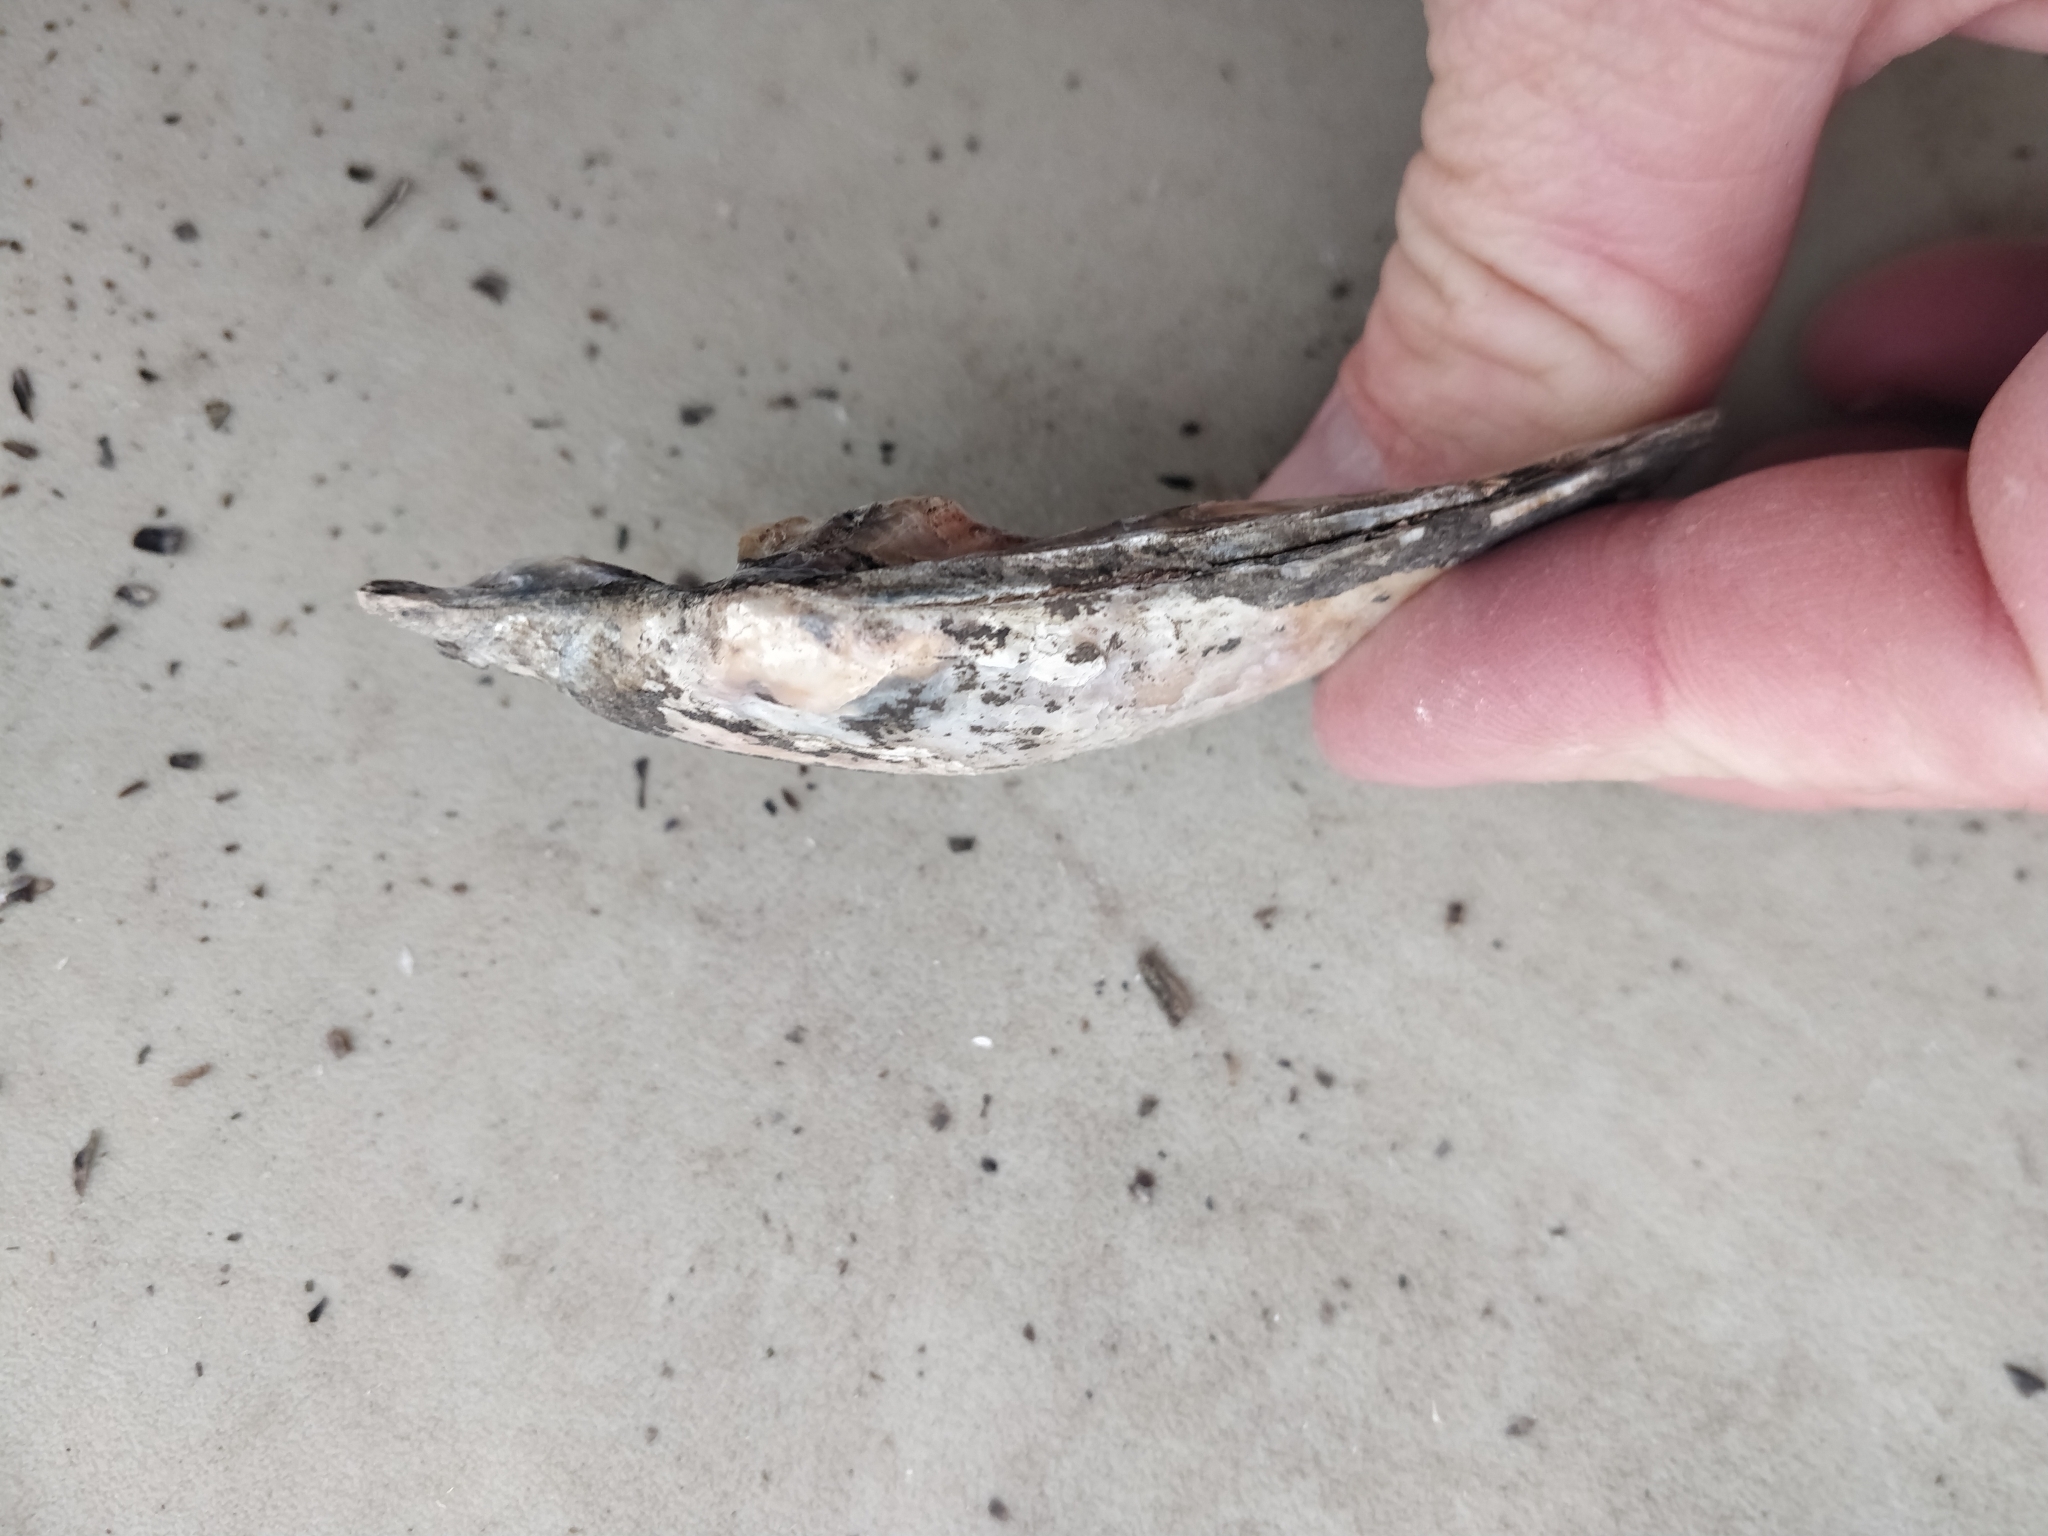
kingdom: Animalia
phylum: Mollusca
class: Bivalvia
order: Unionida
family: Unionidae
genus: Lasmigona
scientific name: Lasmigona complanata
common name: White heelsplitter
